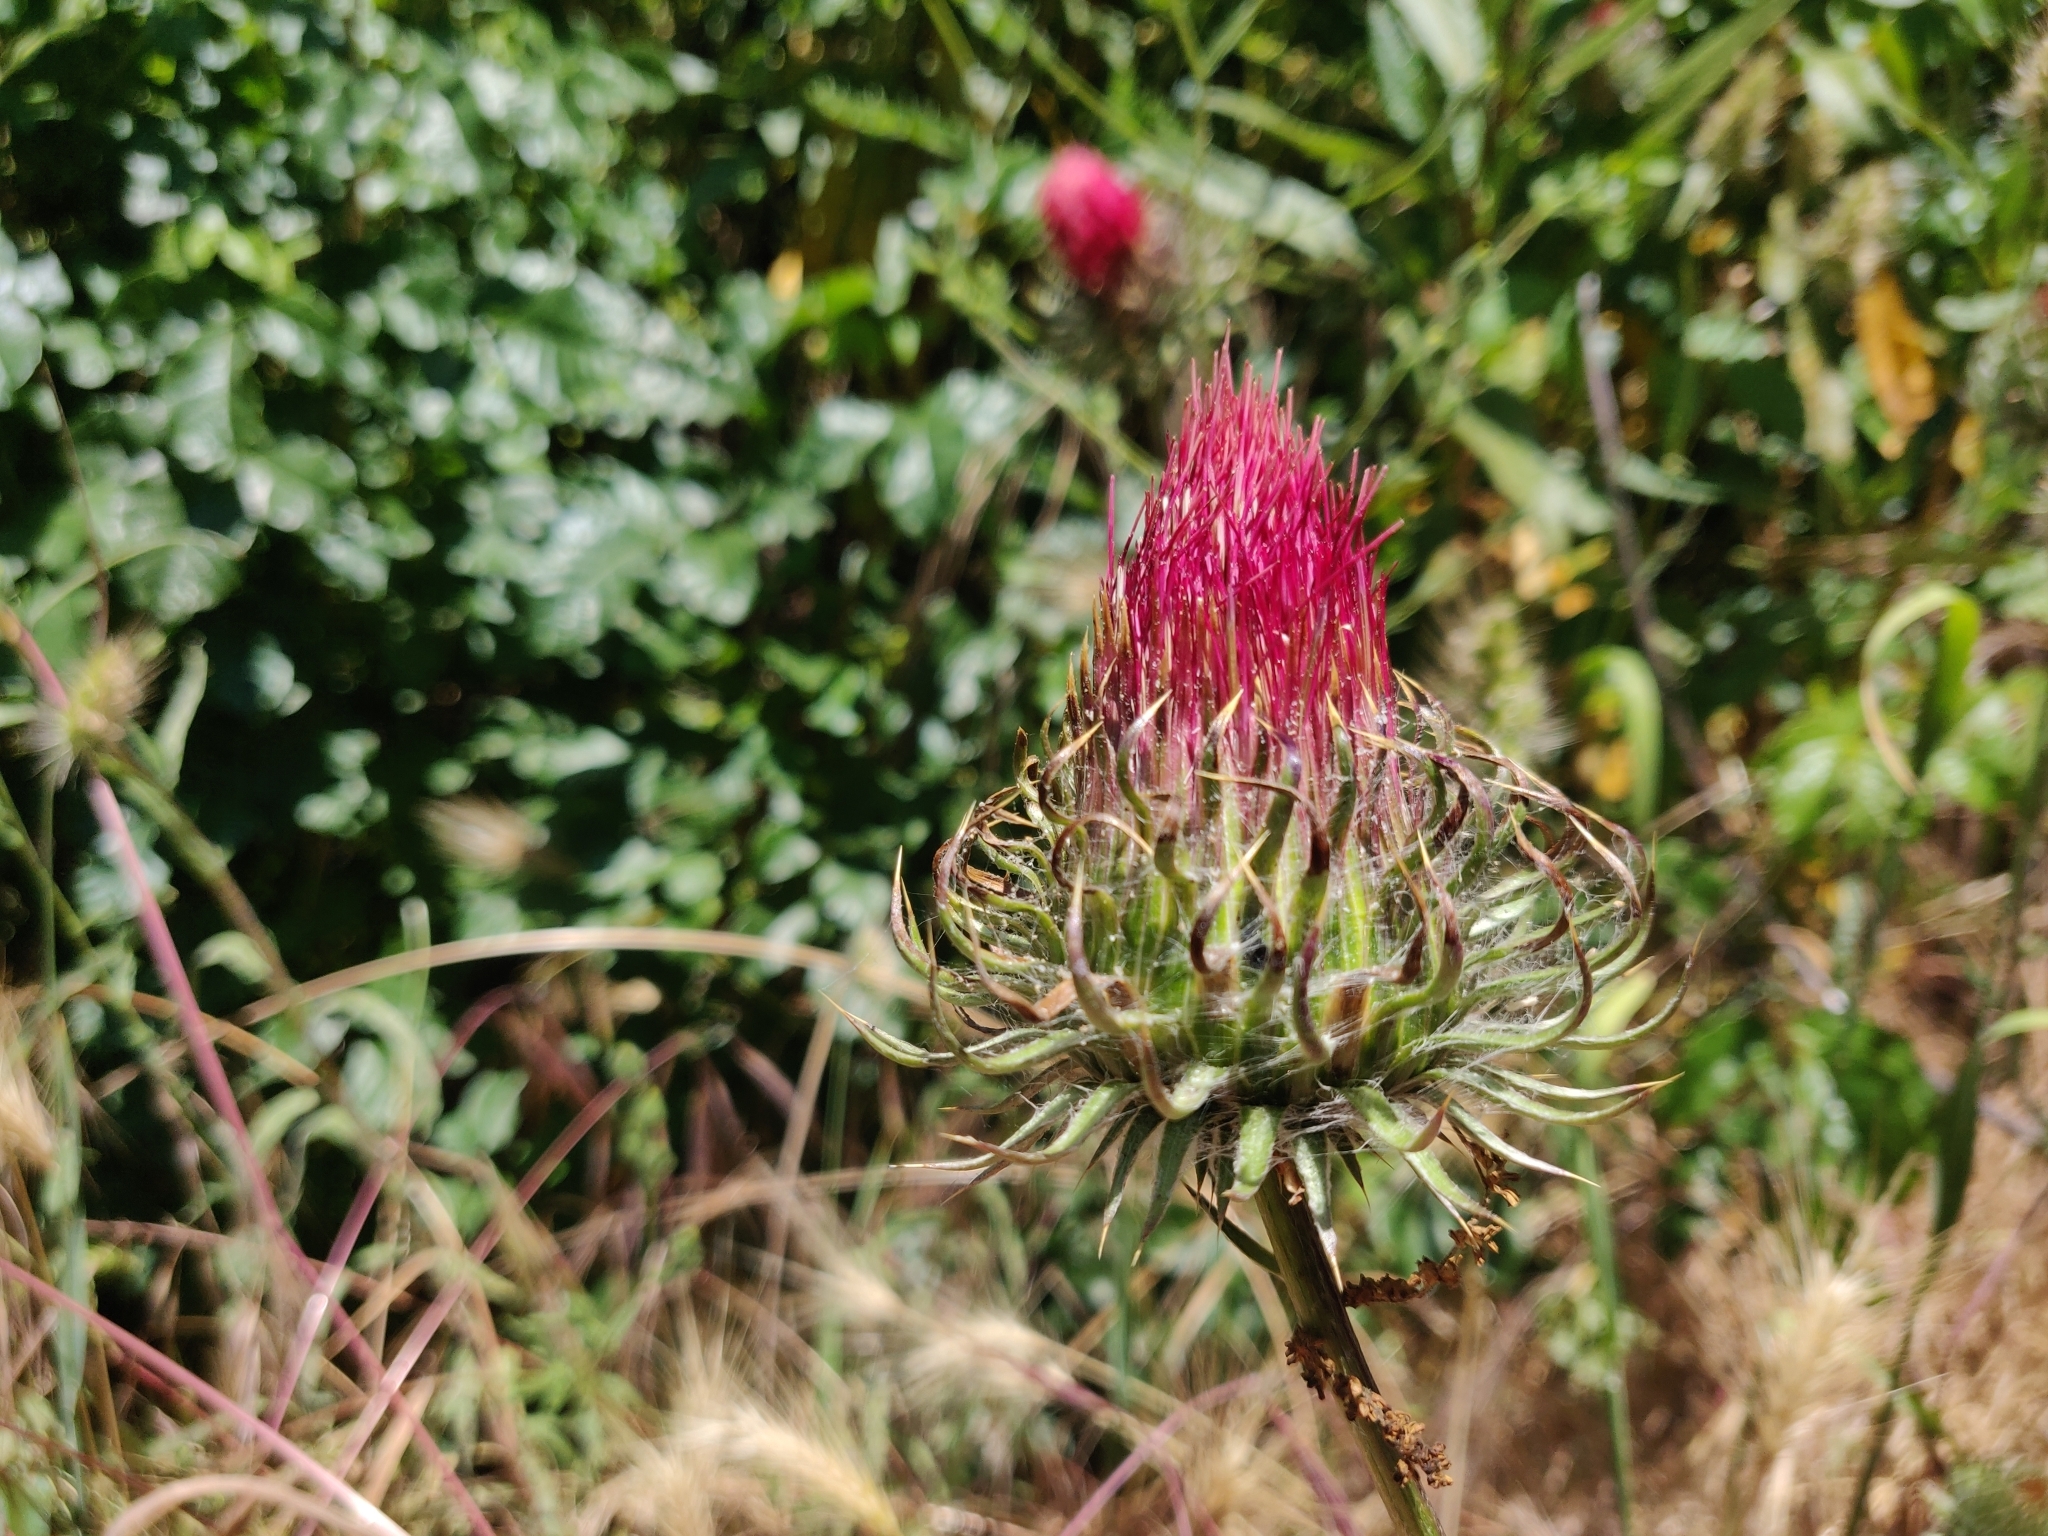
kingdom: Plantae
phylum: Tracheophyta
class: Magnoliopsida
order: Asterales
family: Asteraceae
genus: Cirsium
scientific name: Cirsium occidentale
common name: Western thistle
